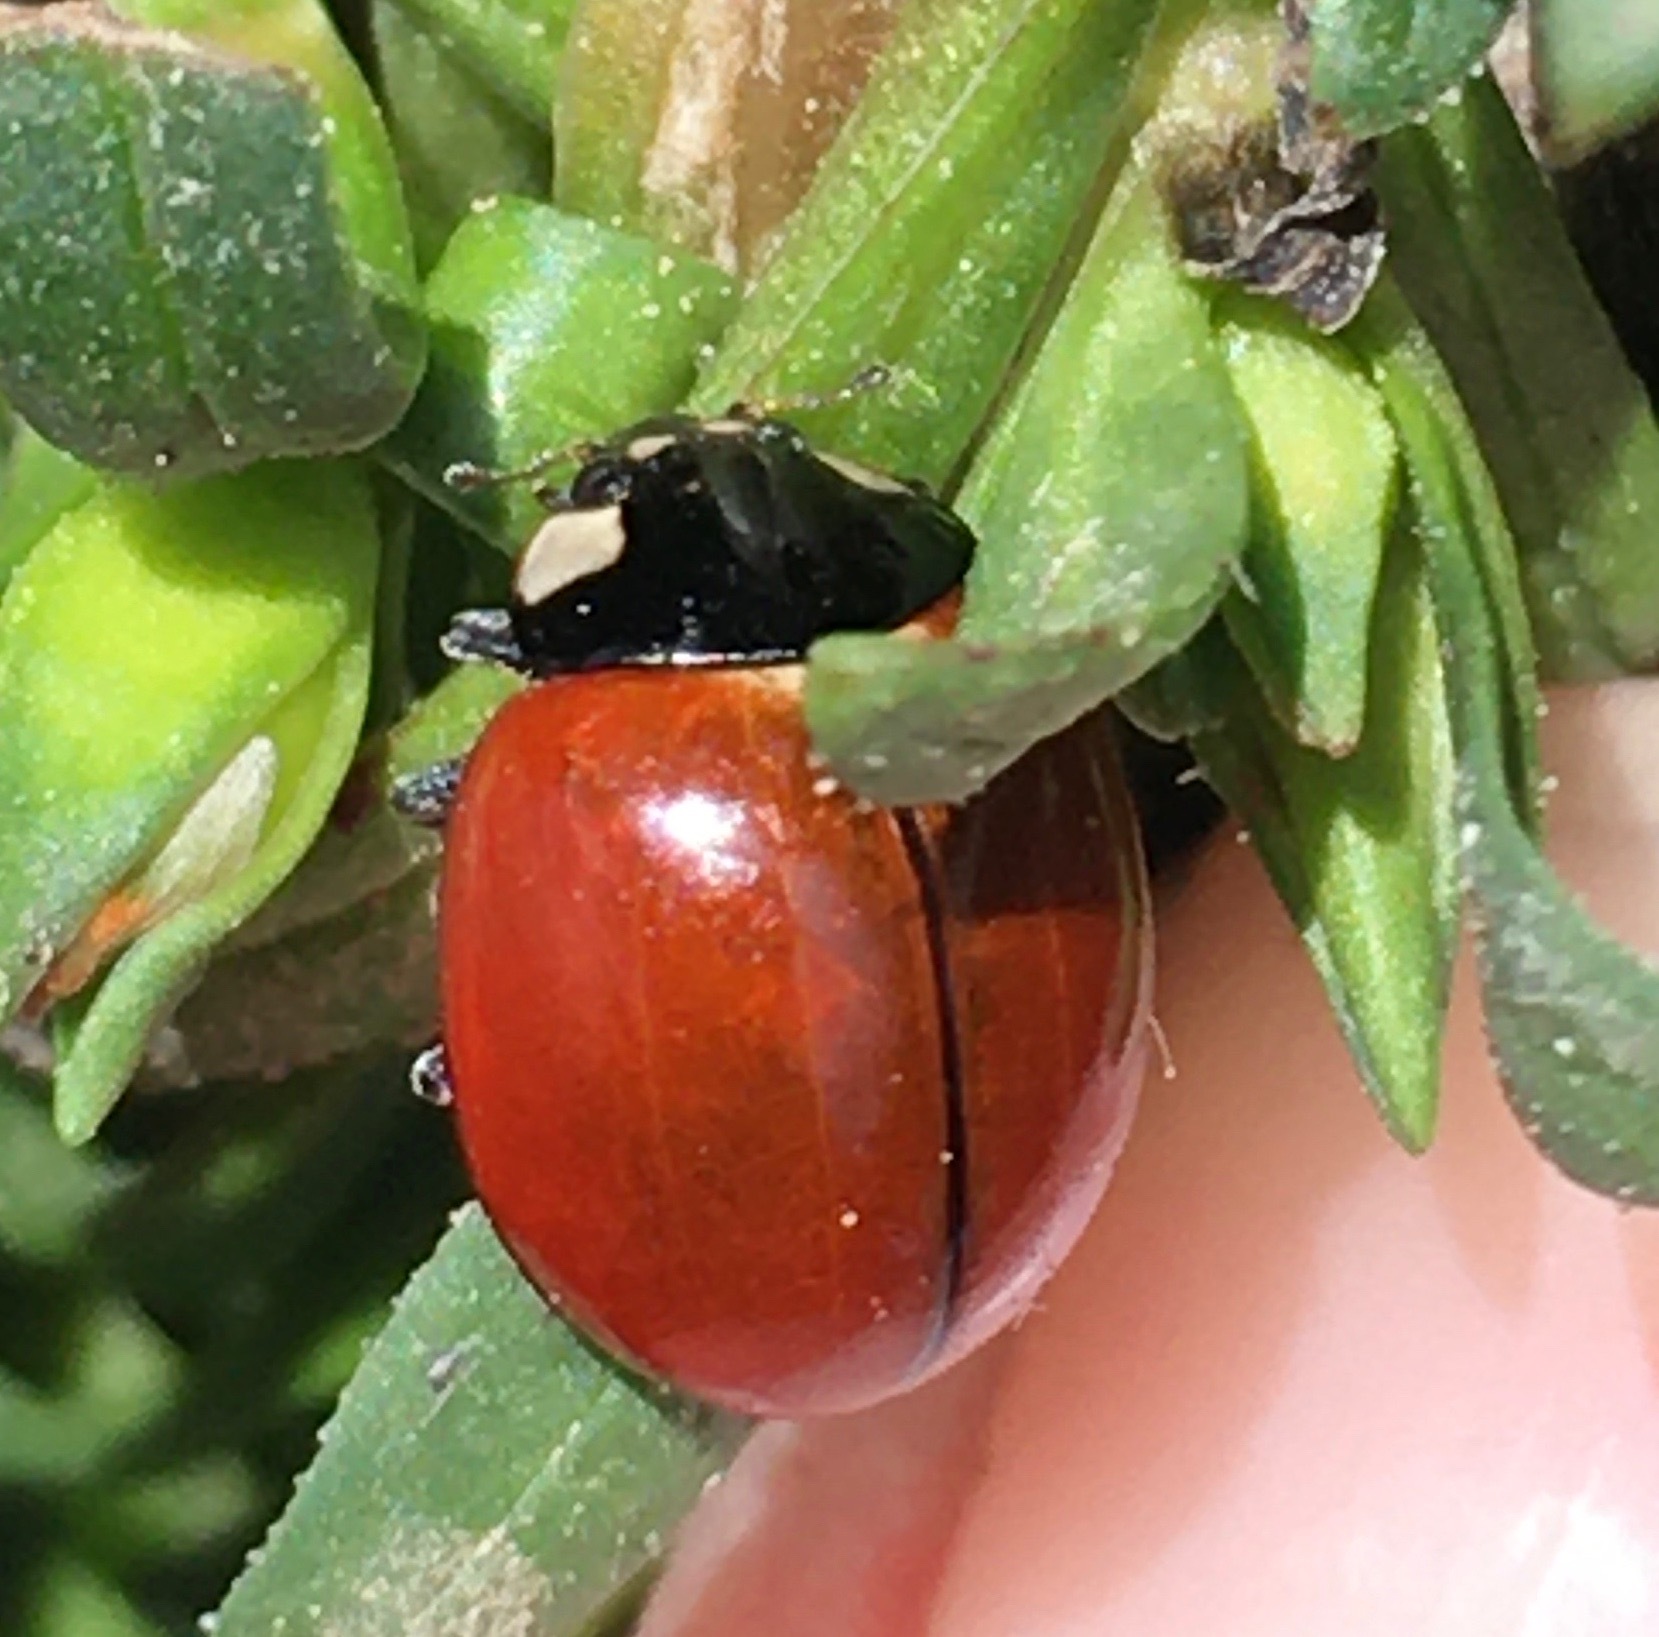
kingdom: Animalia
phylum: Arthropoda
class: Insecta
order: Coleoptera
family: Coccinellidae
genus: Coccinella
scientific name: Coccinella californica
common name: Lady beetle
